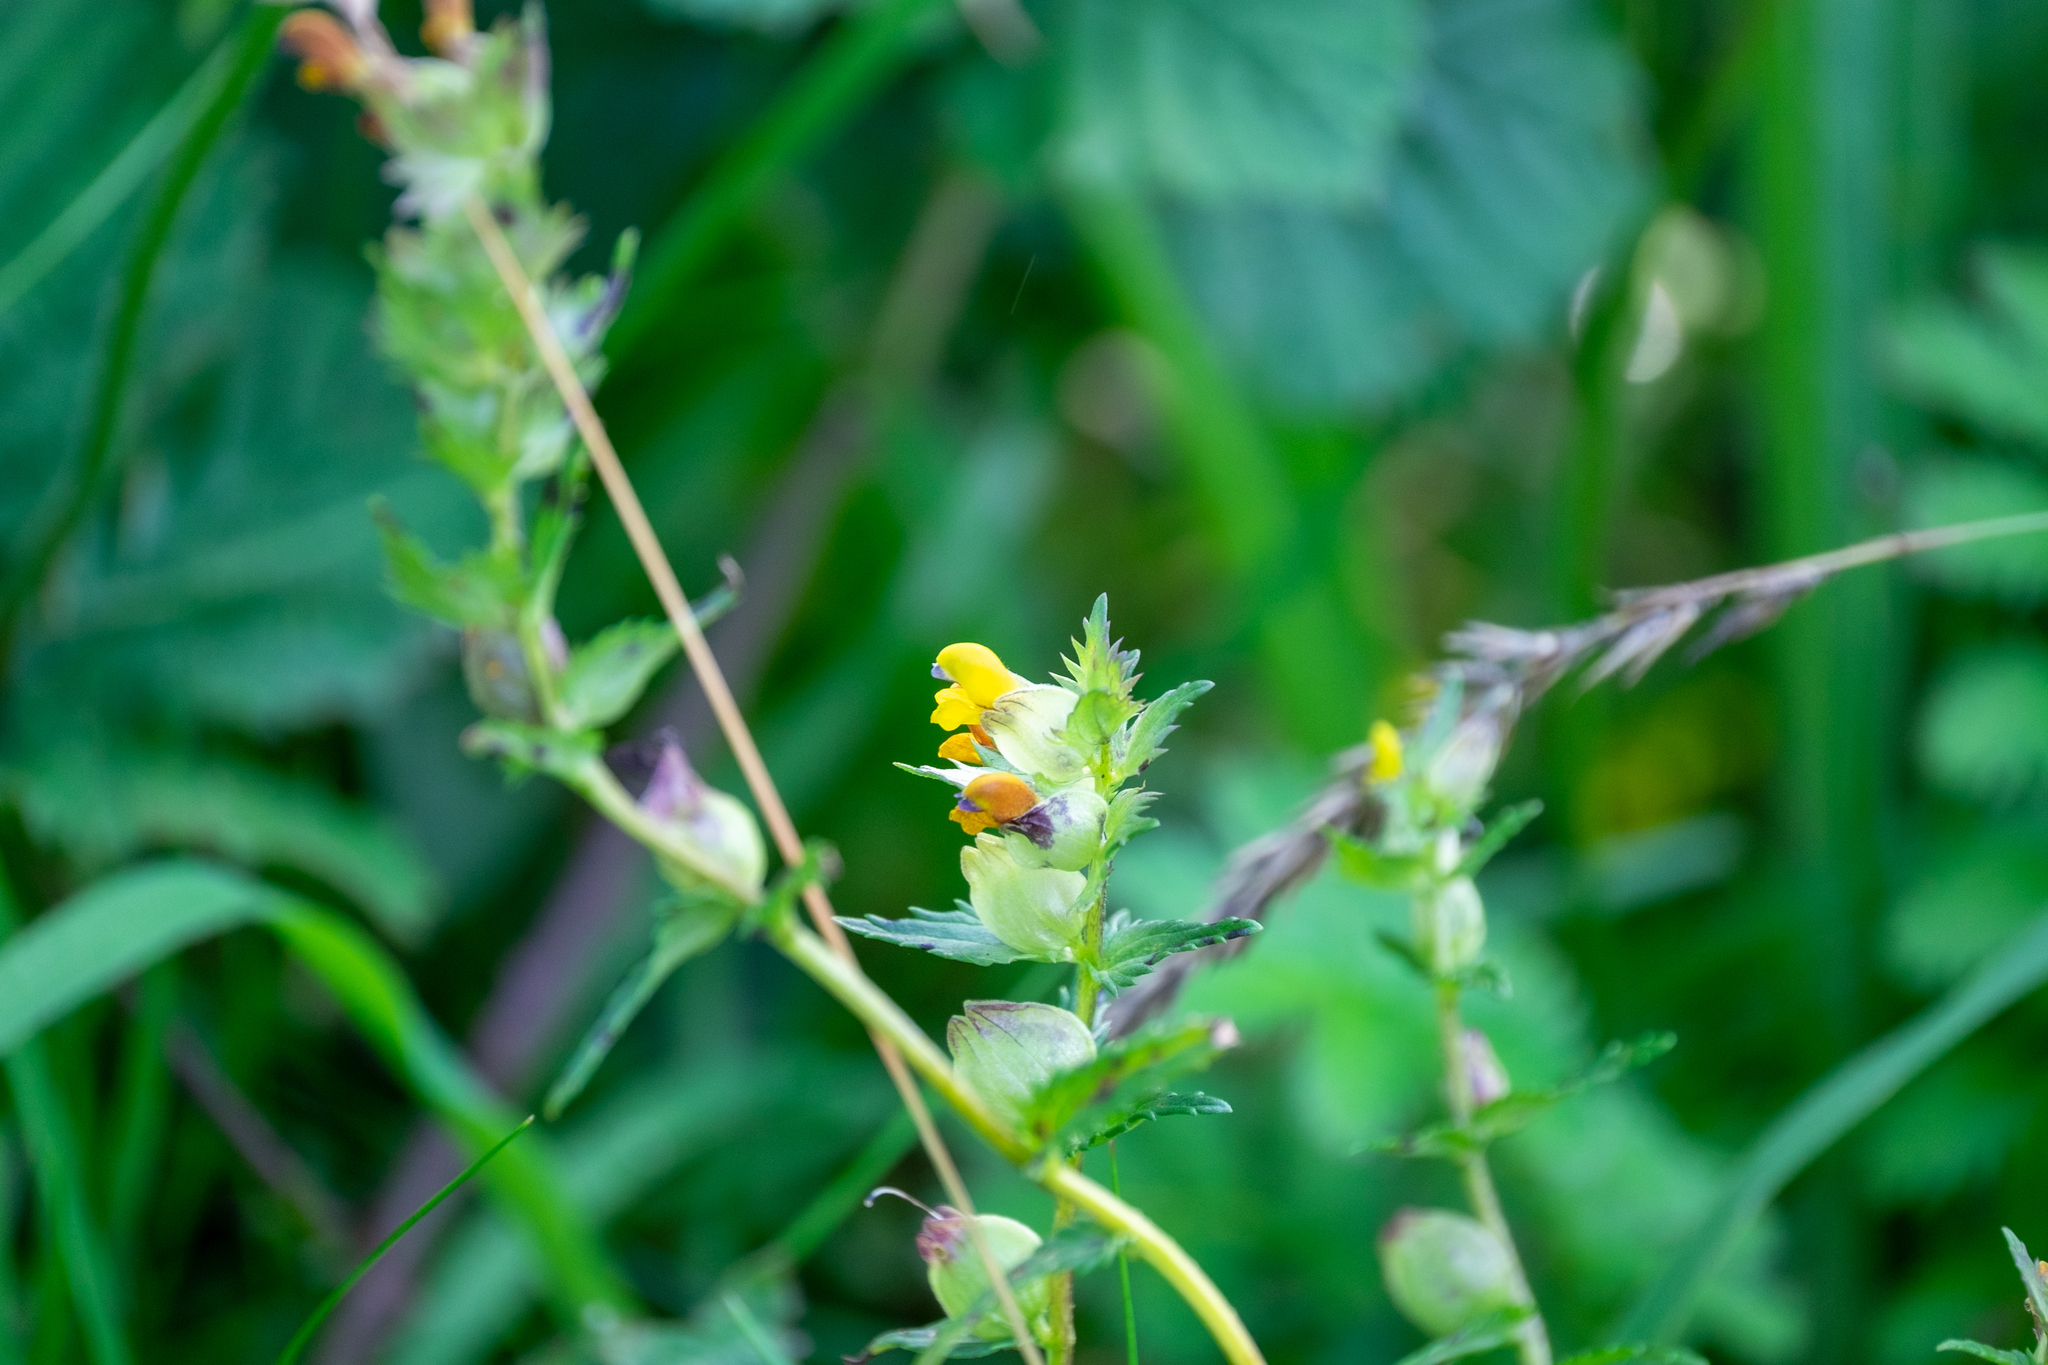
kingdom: Plantae
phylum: Tracheophyta
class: Magnoliopsida
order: Lamiales
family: Orobanchaceae
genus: Rhinanthus
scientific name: Rhinanthus minor
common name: Yellow-rattle
